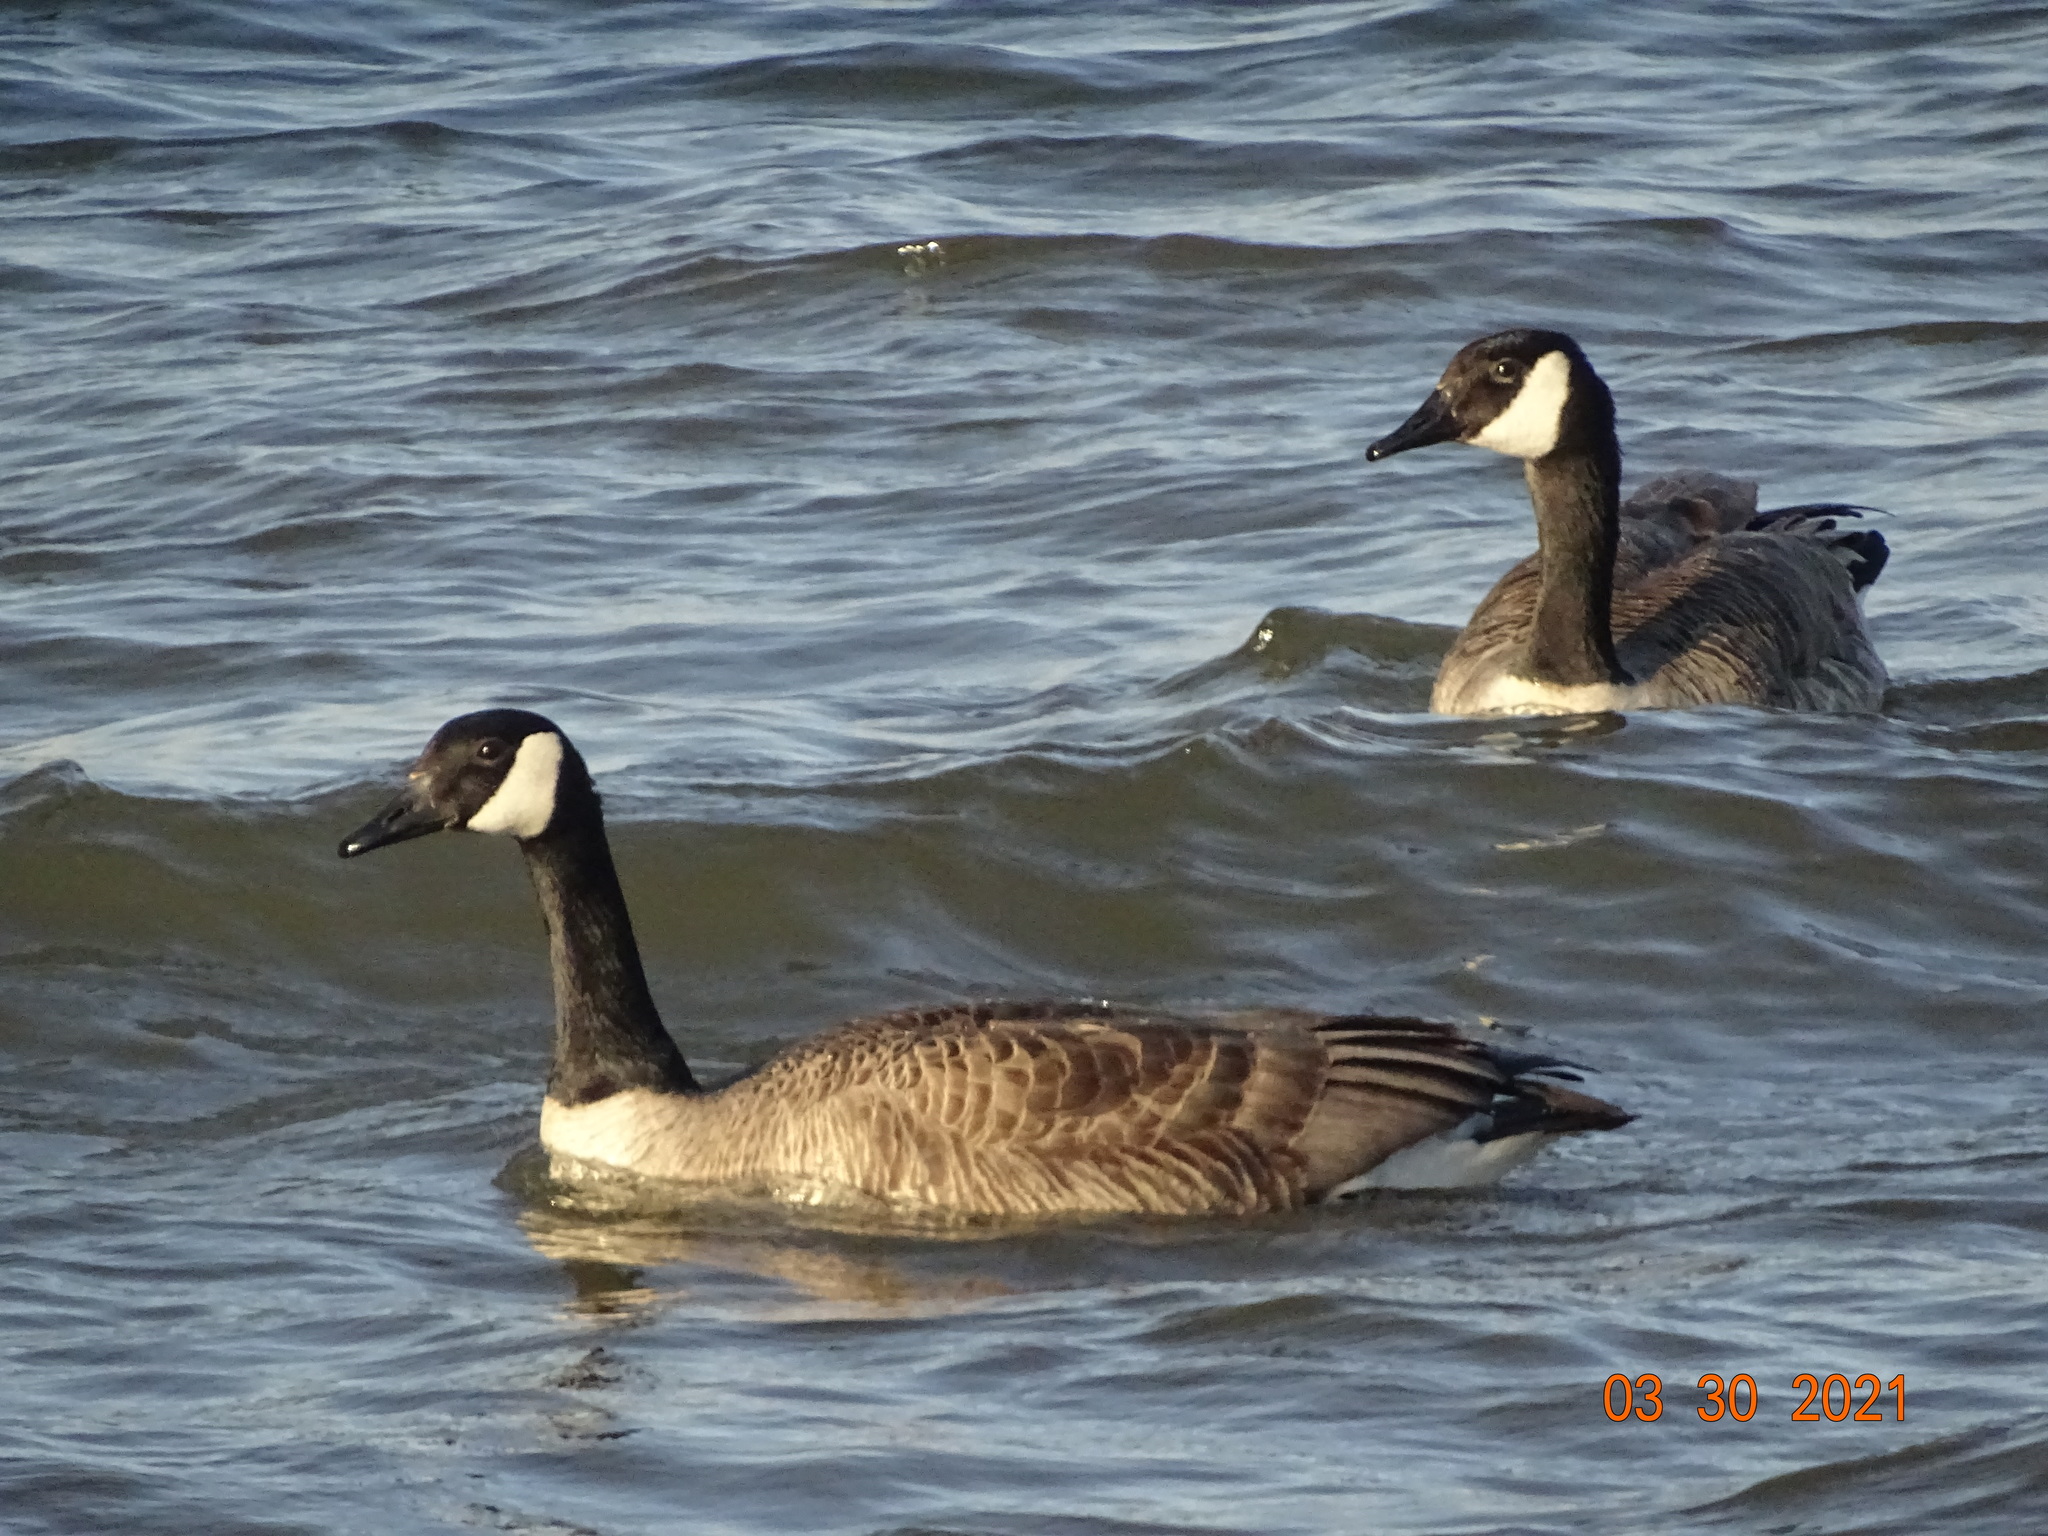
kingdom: Animalia
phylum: Chordata
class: Aves
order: Anseriformes
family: Anatidae
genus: Branta
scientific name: Branta canadensis
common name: Canada goose
